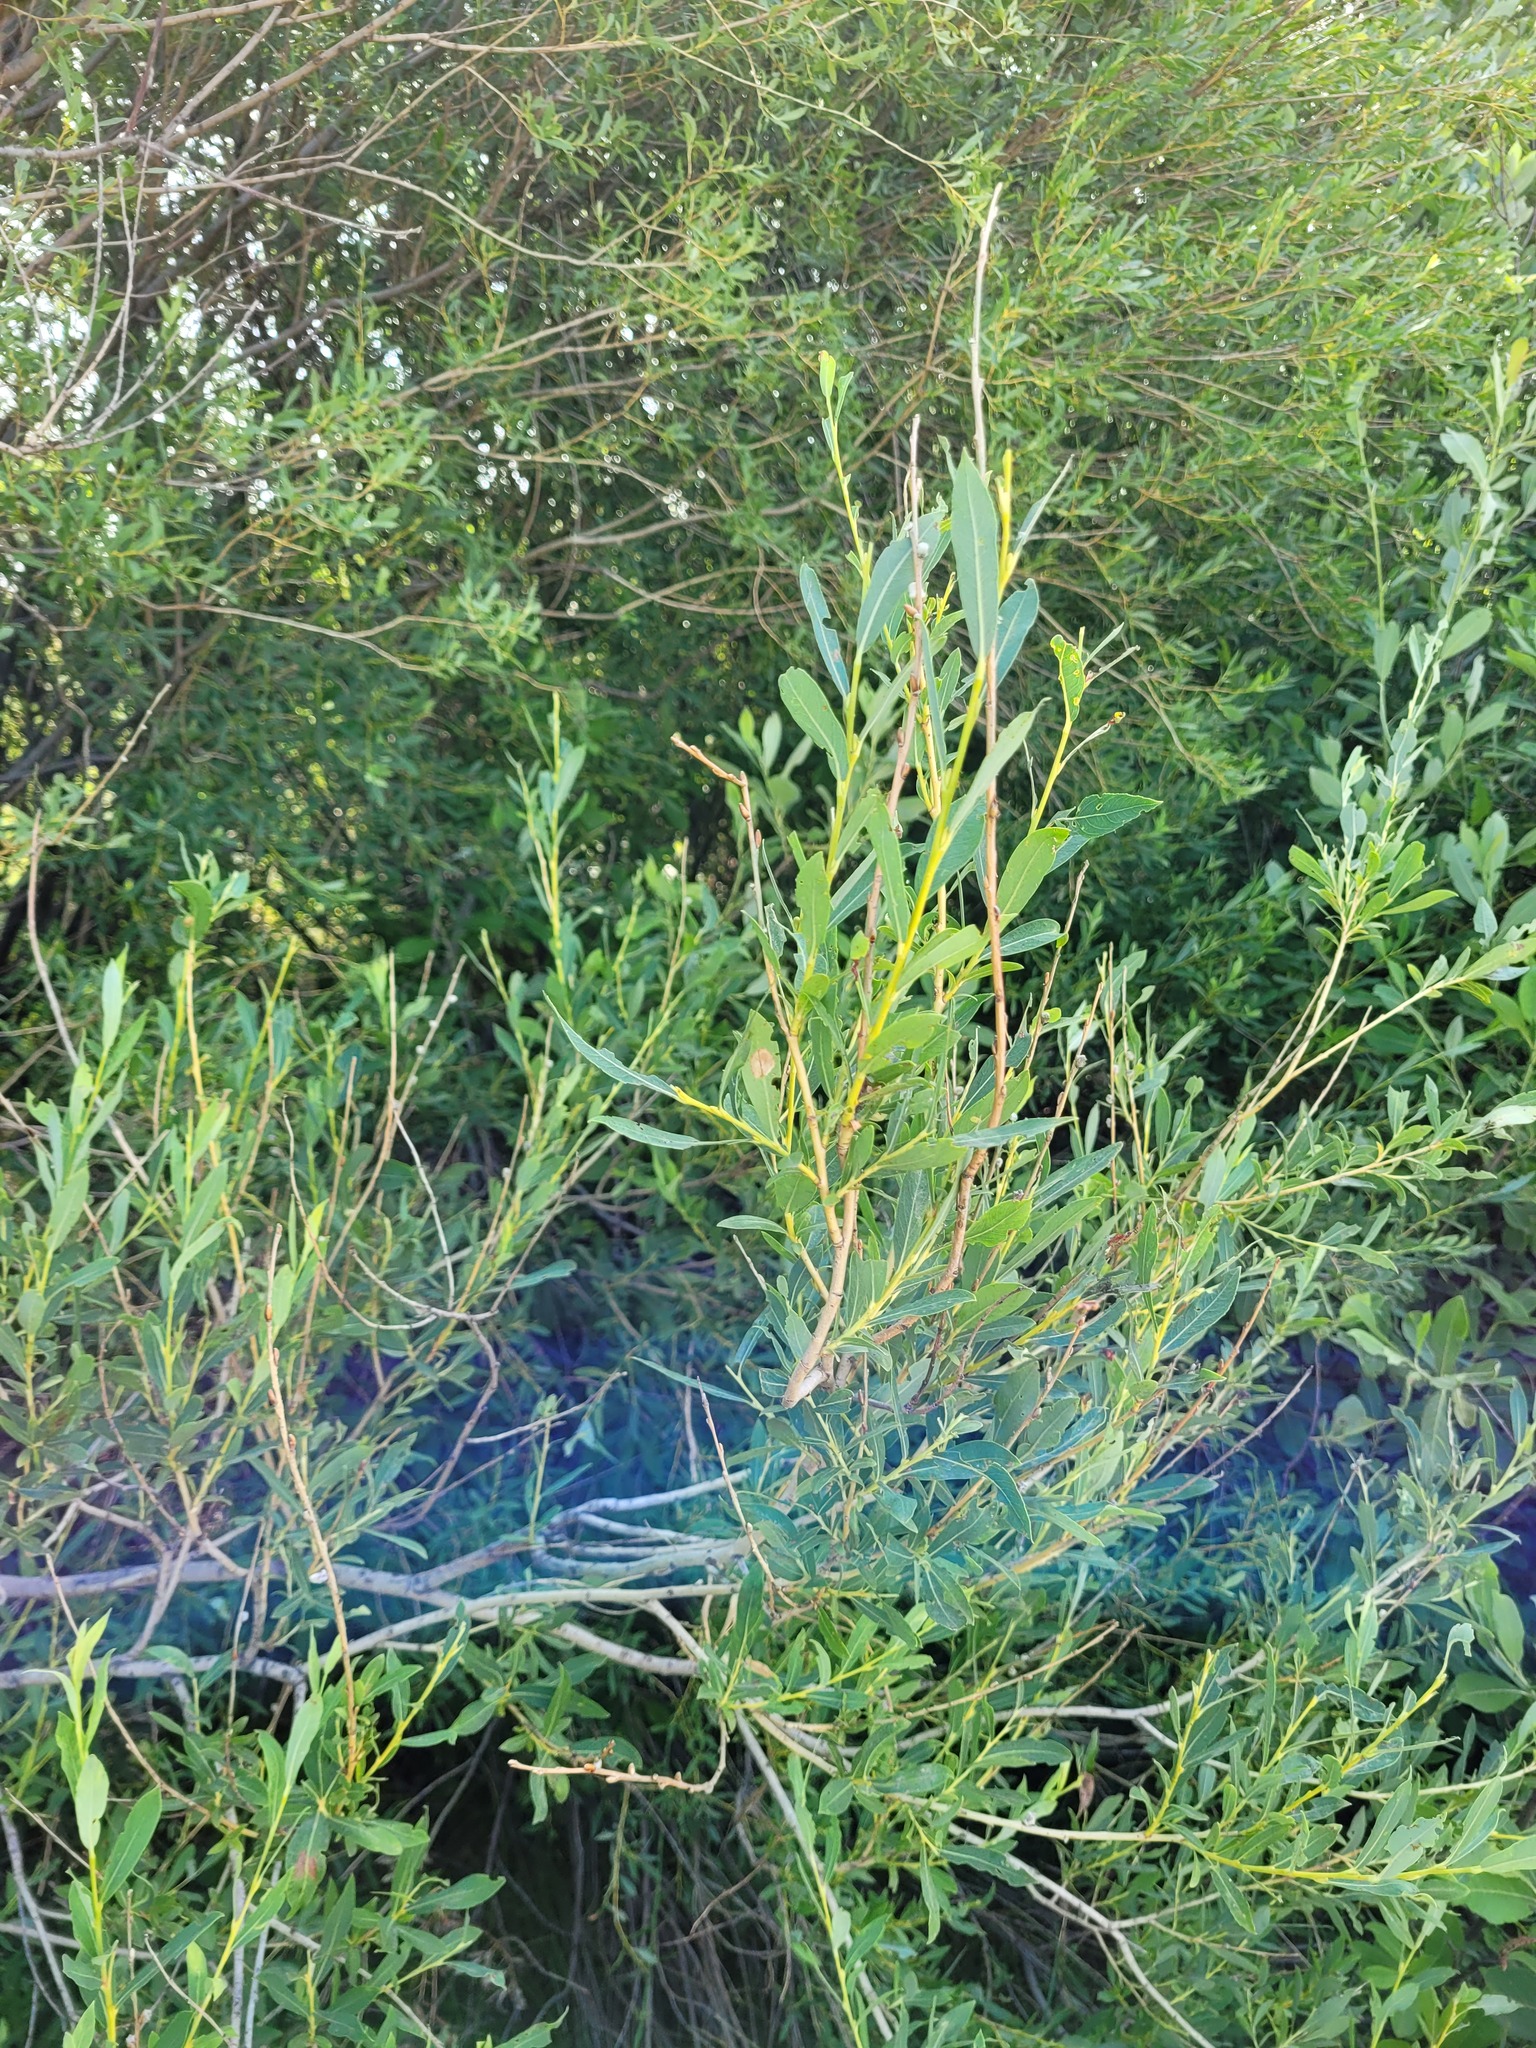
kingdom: Plantae
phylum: Tracheophyta
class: Magnoliopsida
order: Malpighiales
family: Salicaceae
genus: Salix
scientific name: Salix caspica
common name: Caspian willow
